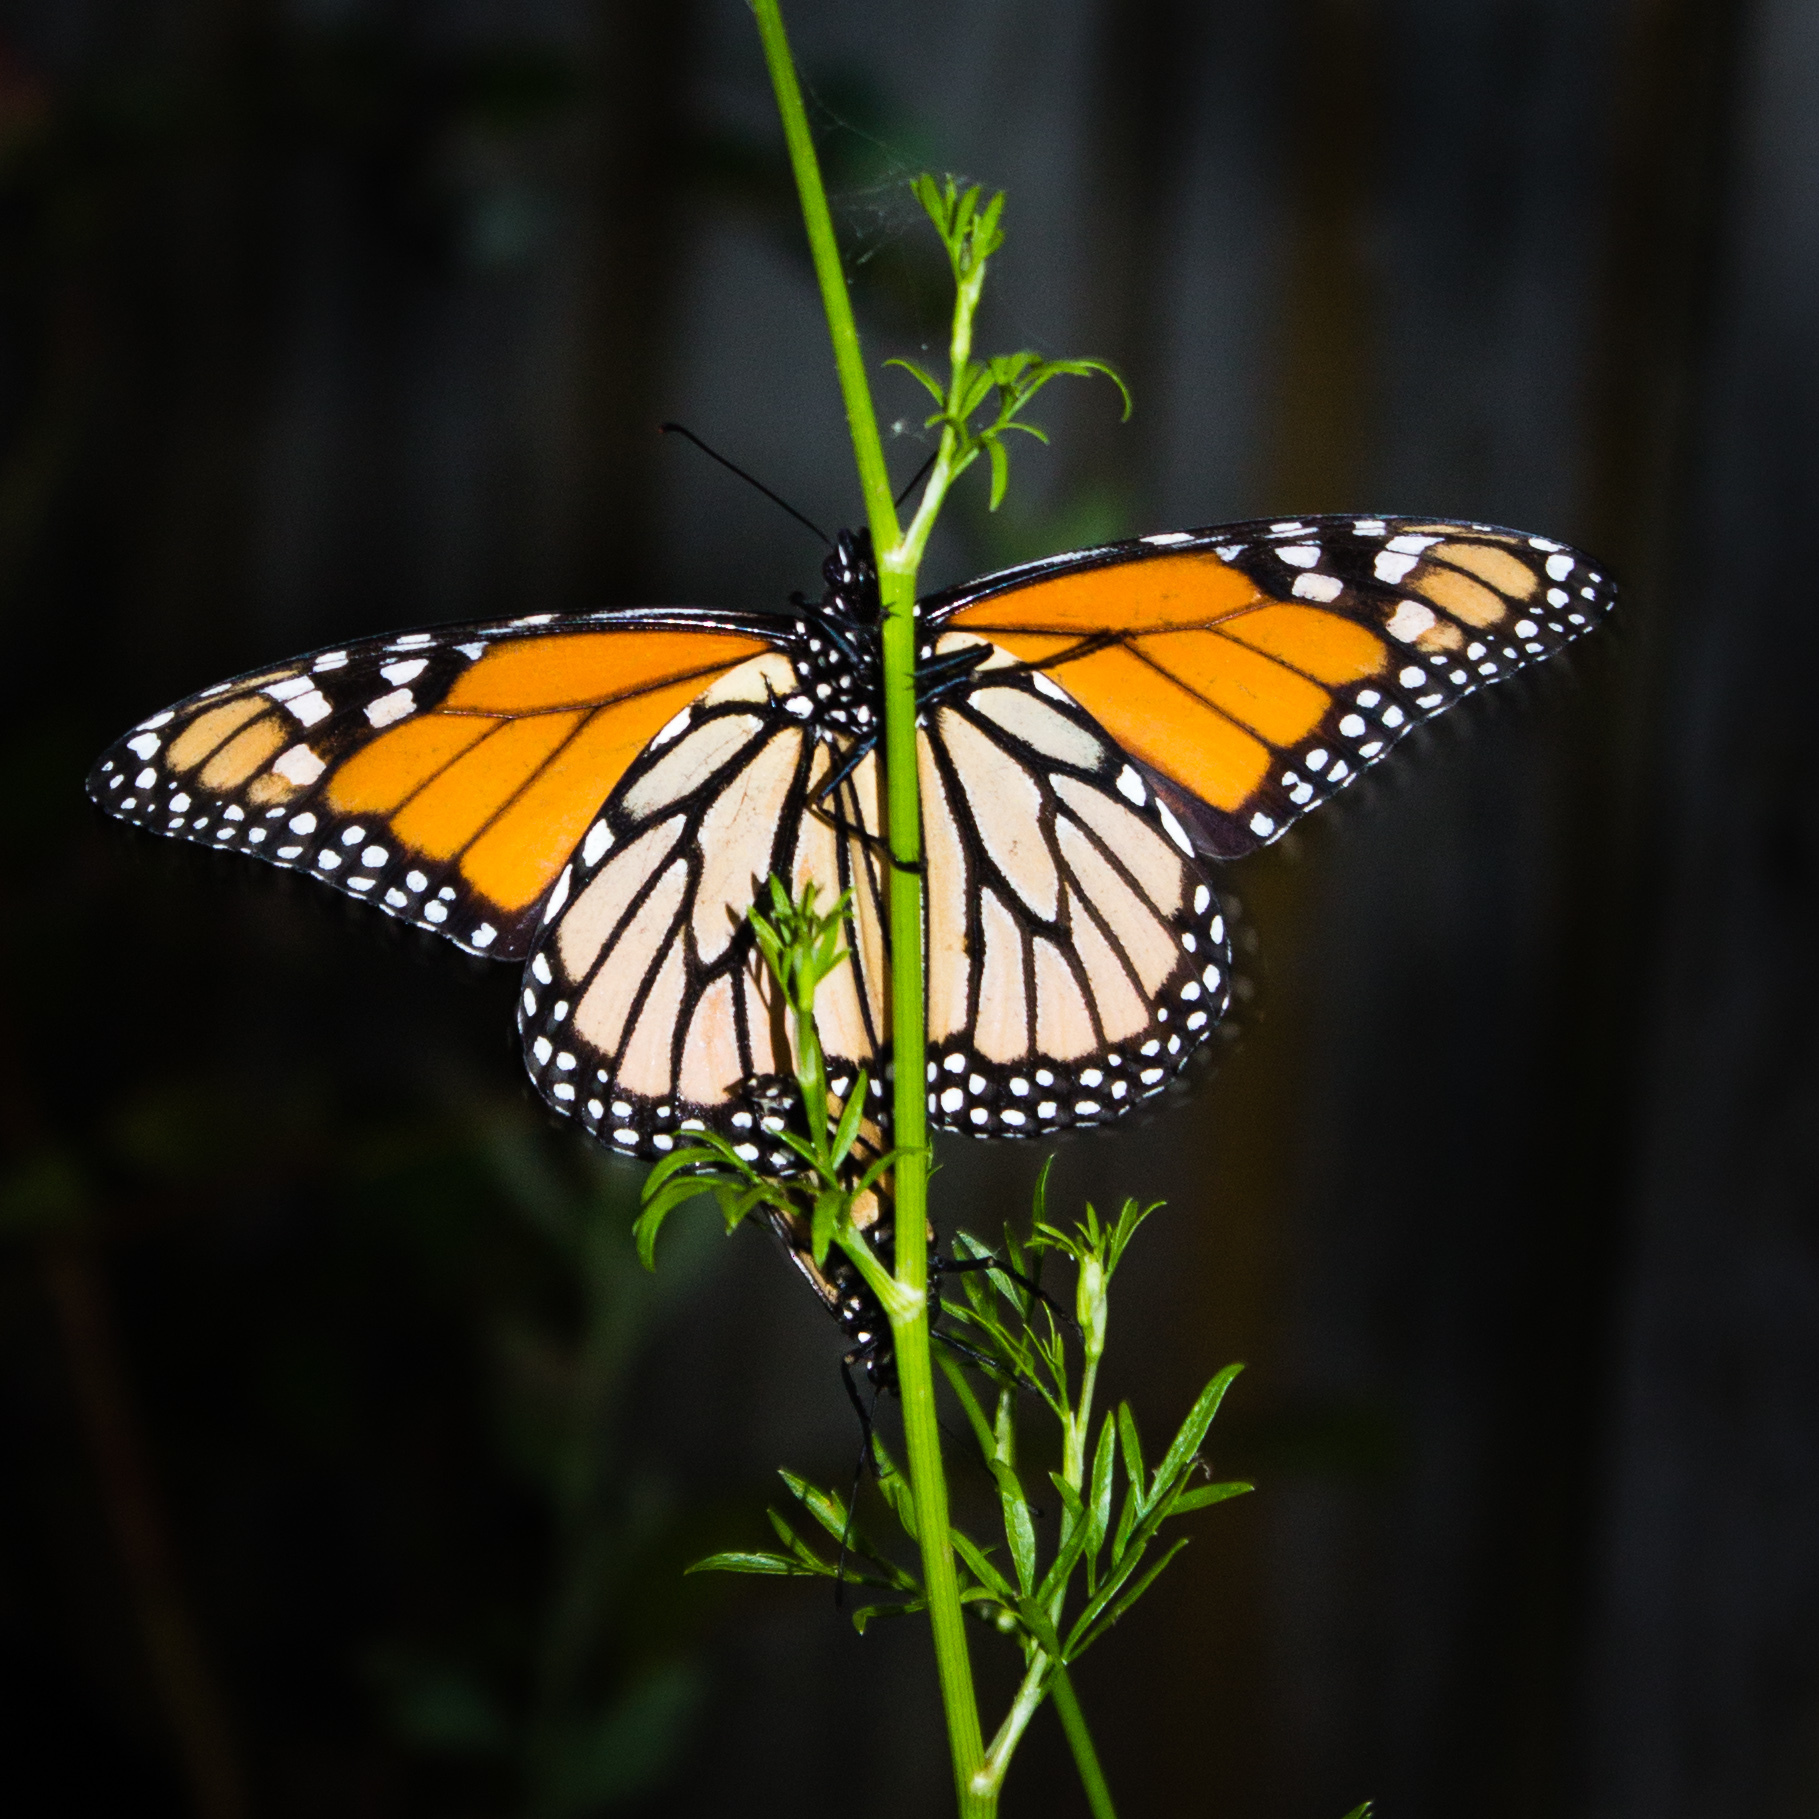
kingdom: Animalia
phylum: Arthropoda
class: Insecta
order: Lepidoptera
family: Nymphalidae
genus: Danaus
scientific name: Danaus plexippus
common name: Monarch
